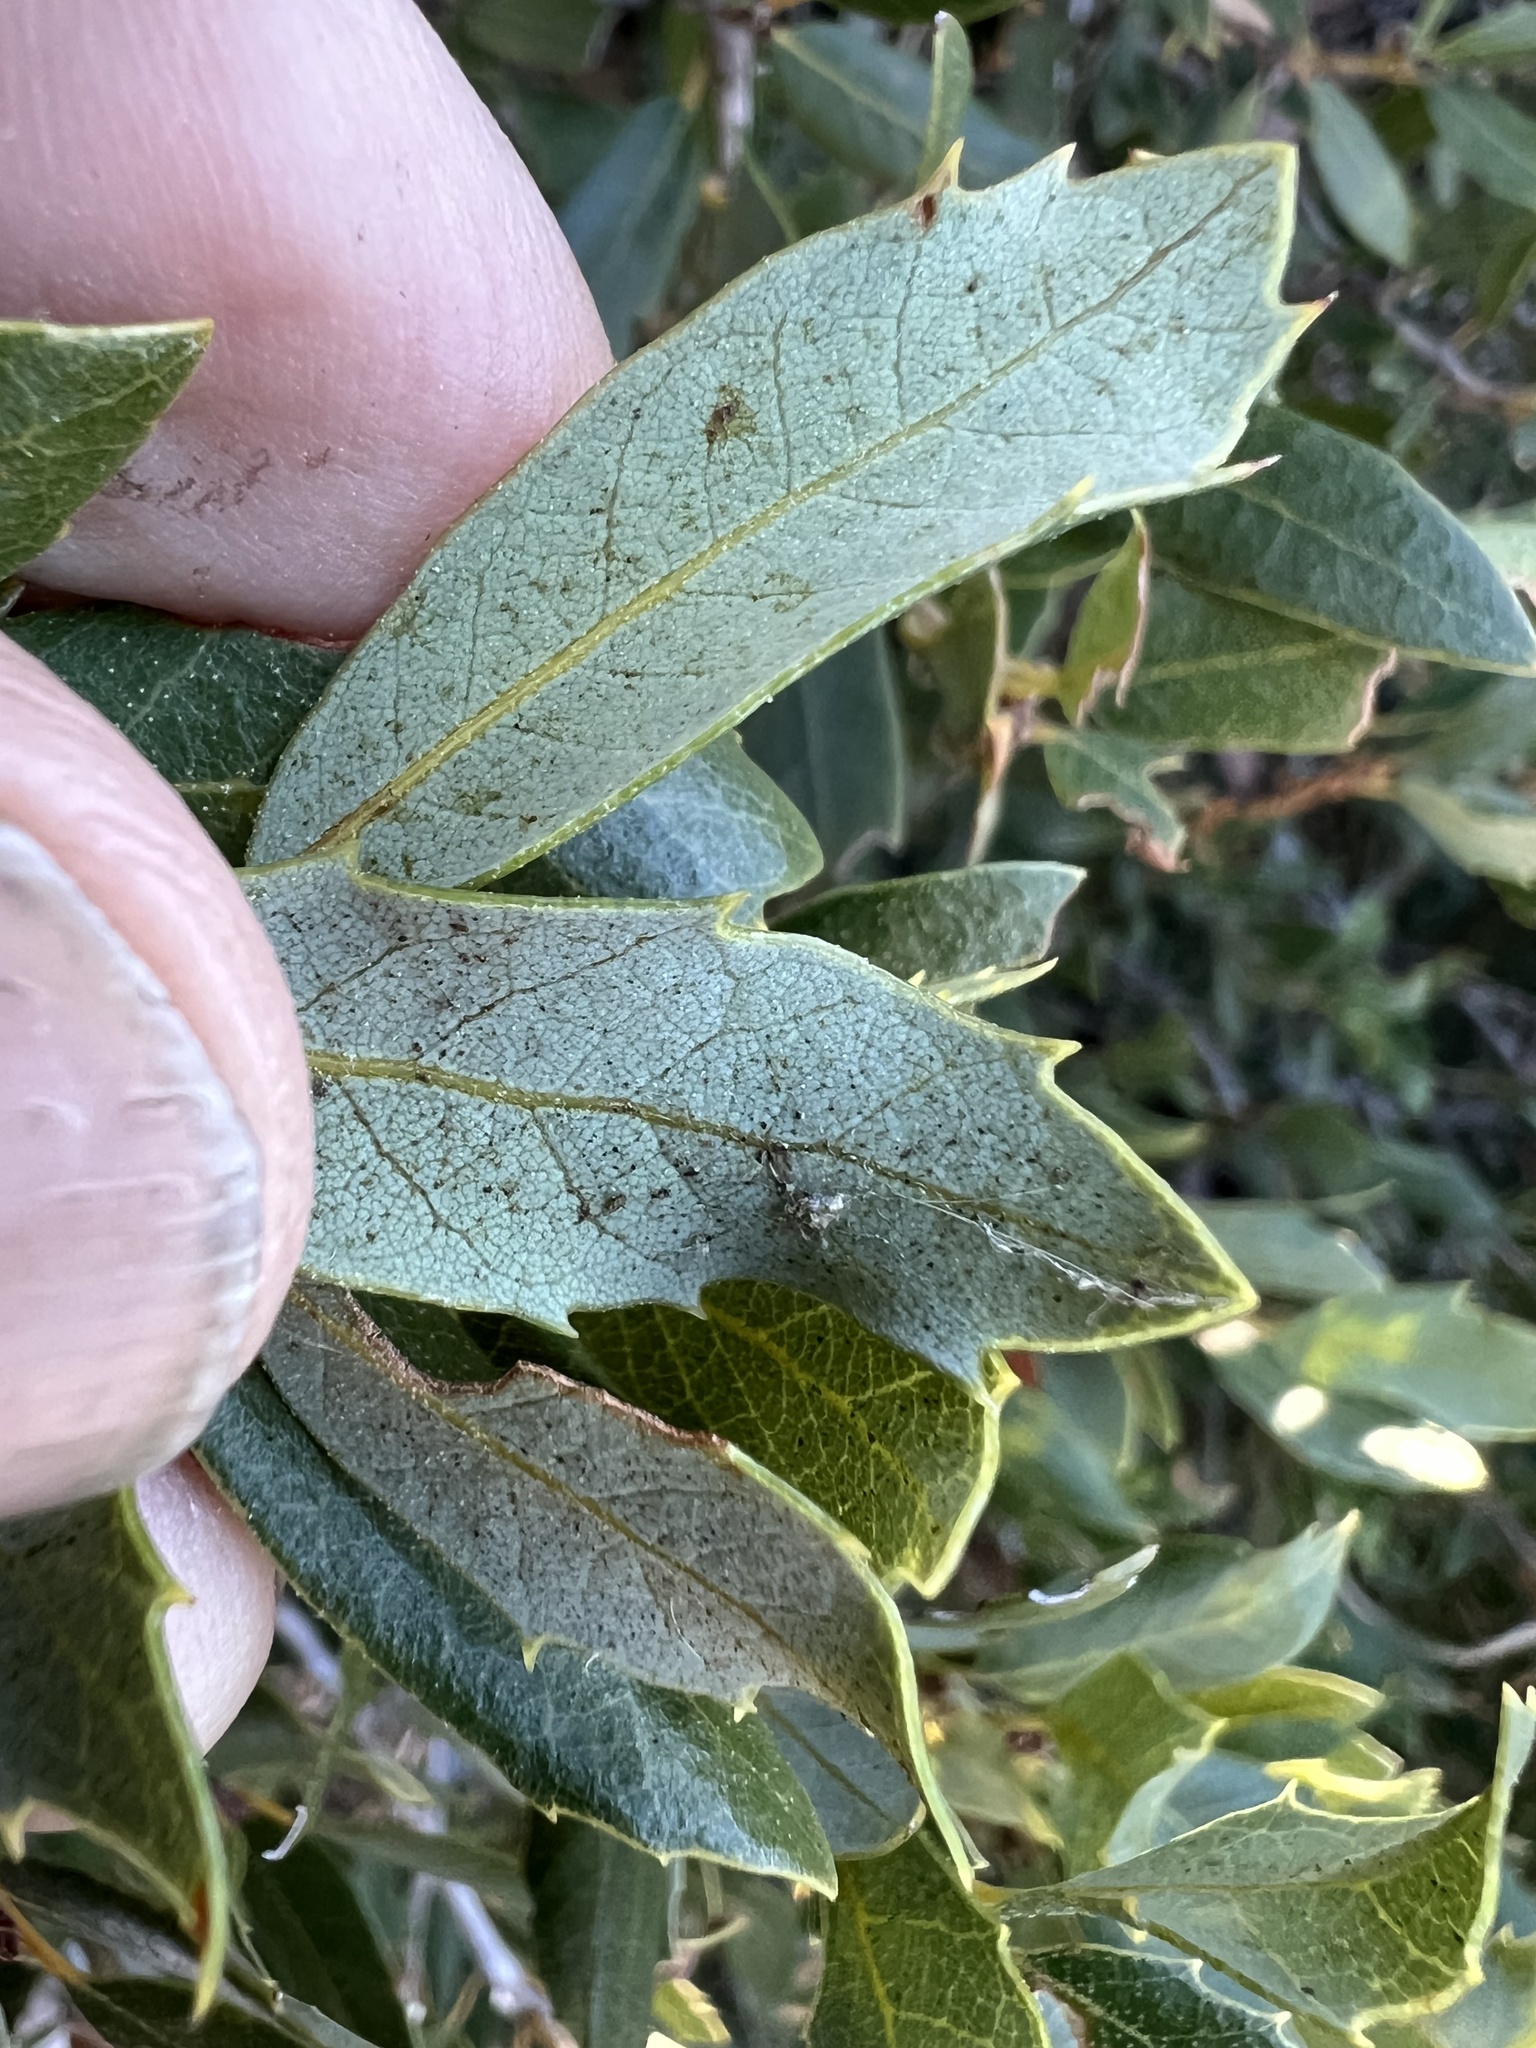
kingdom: Plantae
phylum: Tracheophyta
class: Magnoliopsida
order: Fagales
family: Fagaceae
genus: Quercus
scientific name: Quercus vacciniifolia
